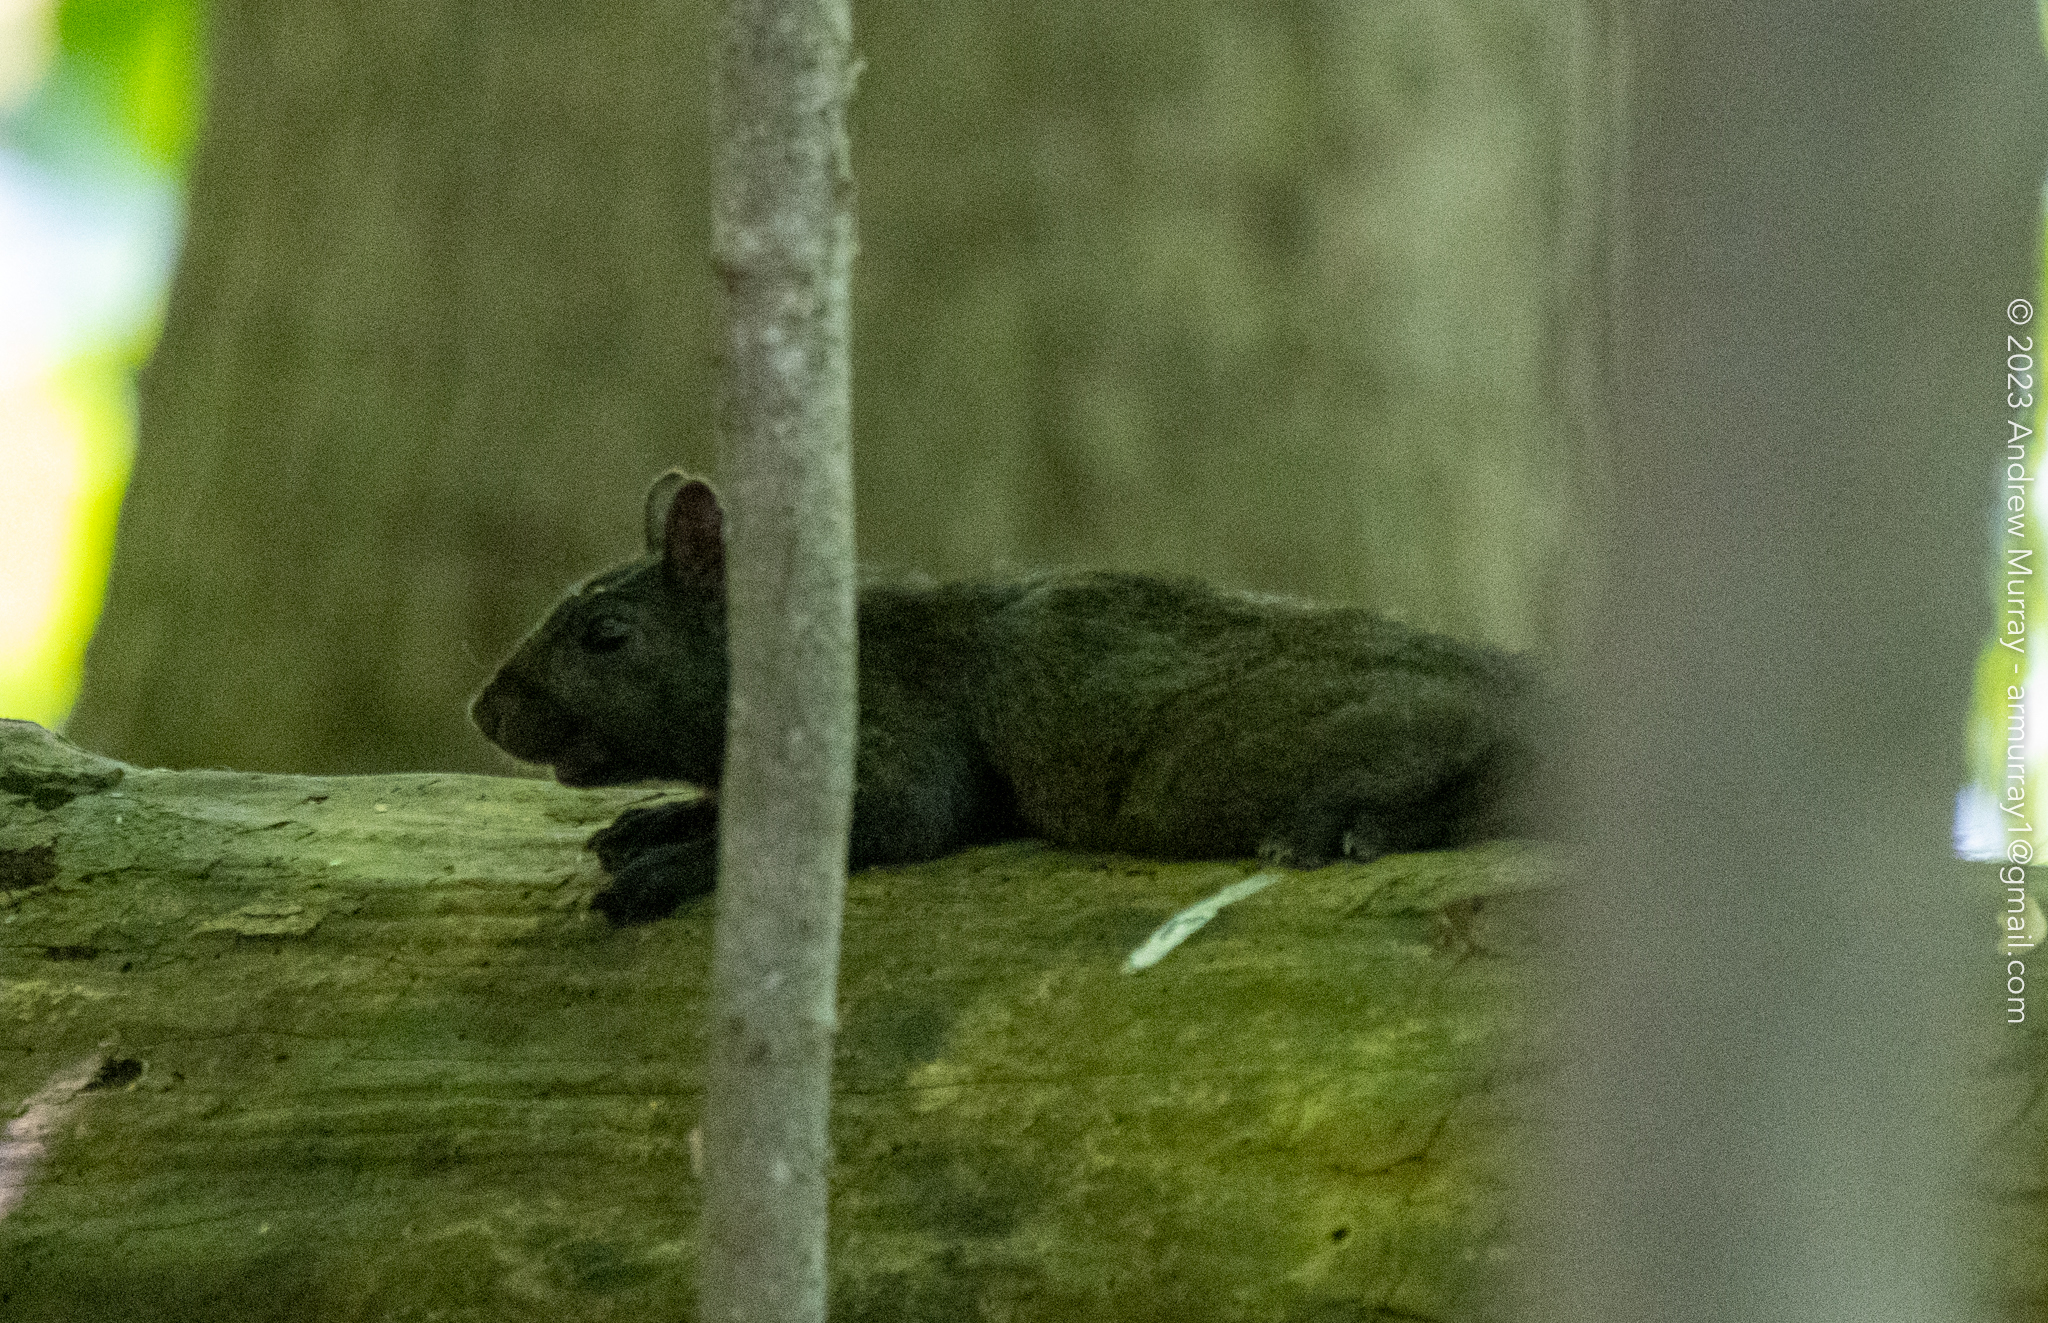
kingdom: Animalia
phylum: Chordata
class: Mammalia
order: Rodentia
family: Sciuridae
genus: Sciurus
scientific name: Sciurus carolinensis
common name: Eastern gray squirrel
